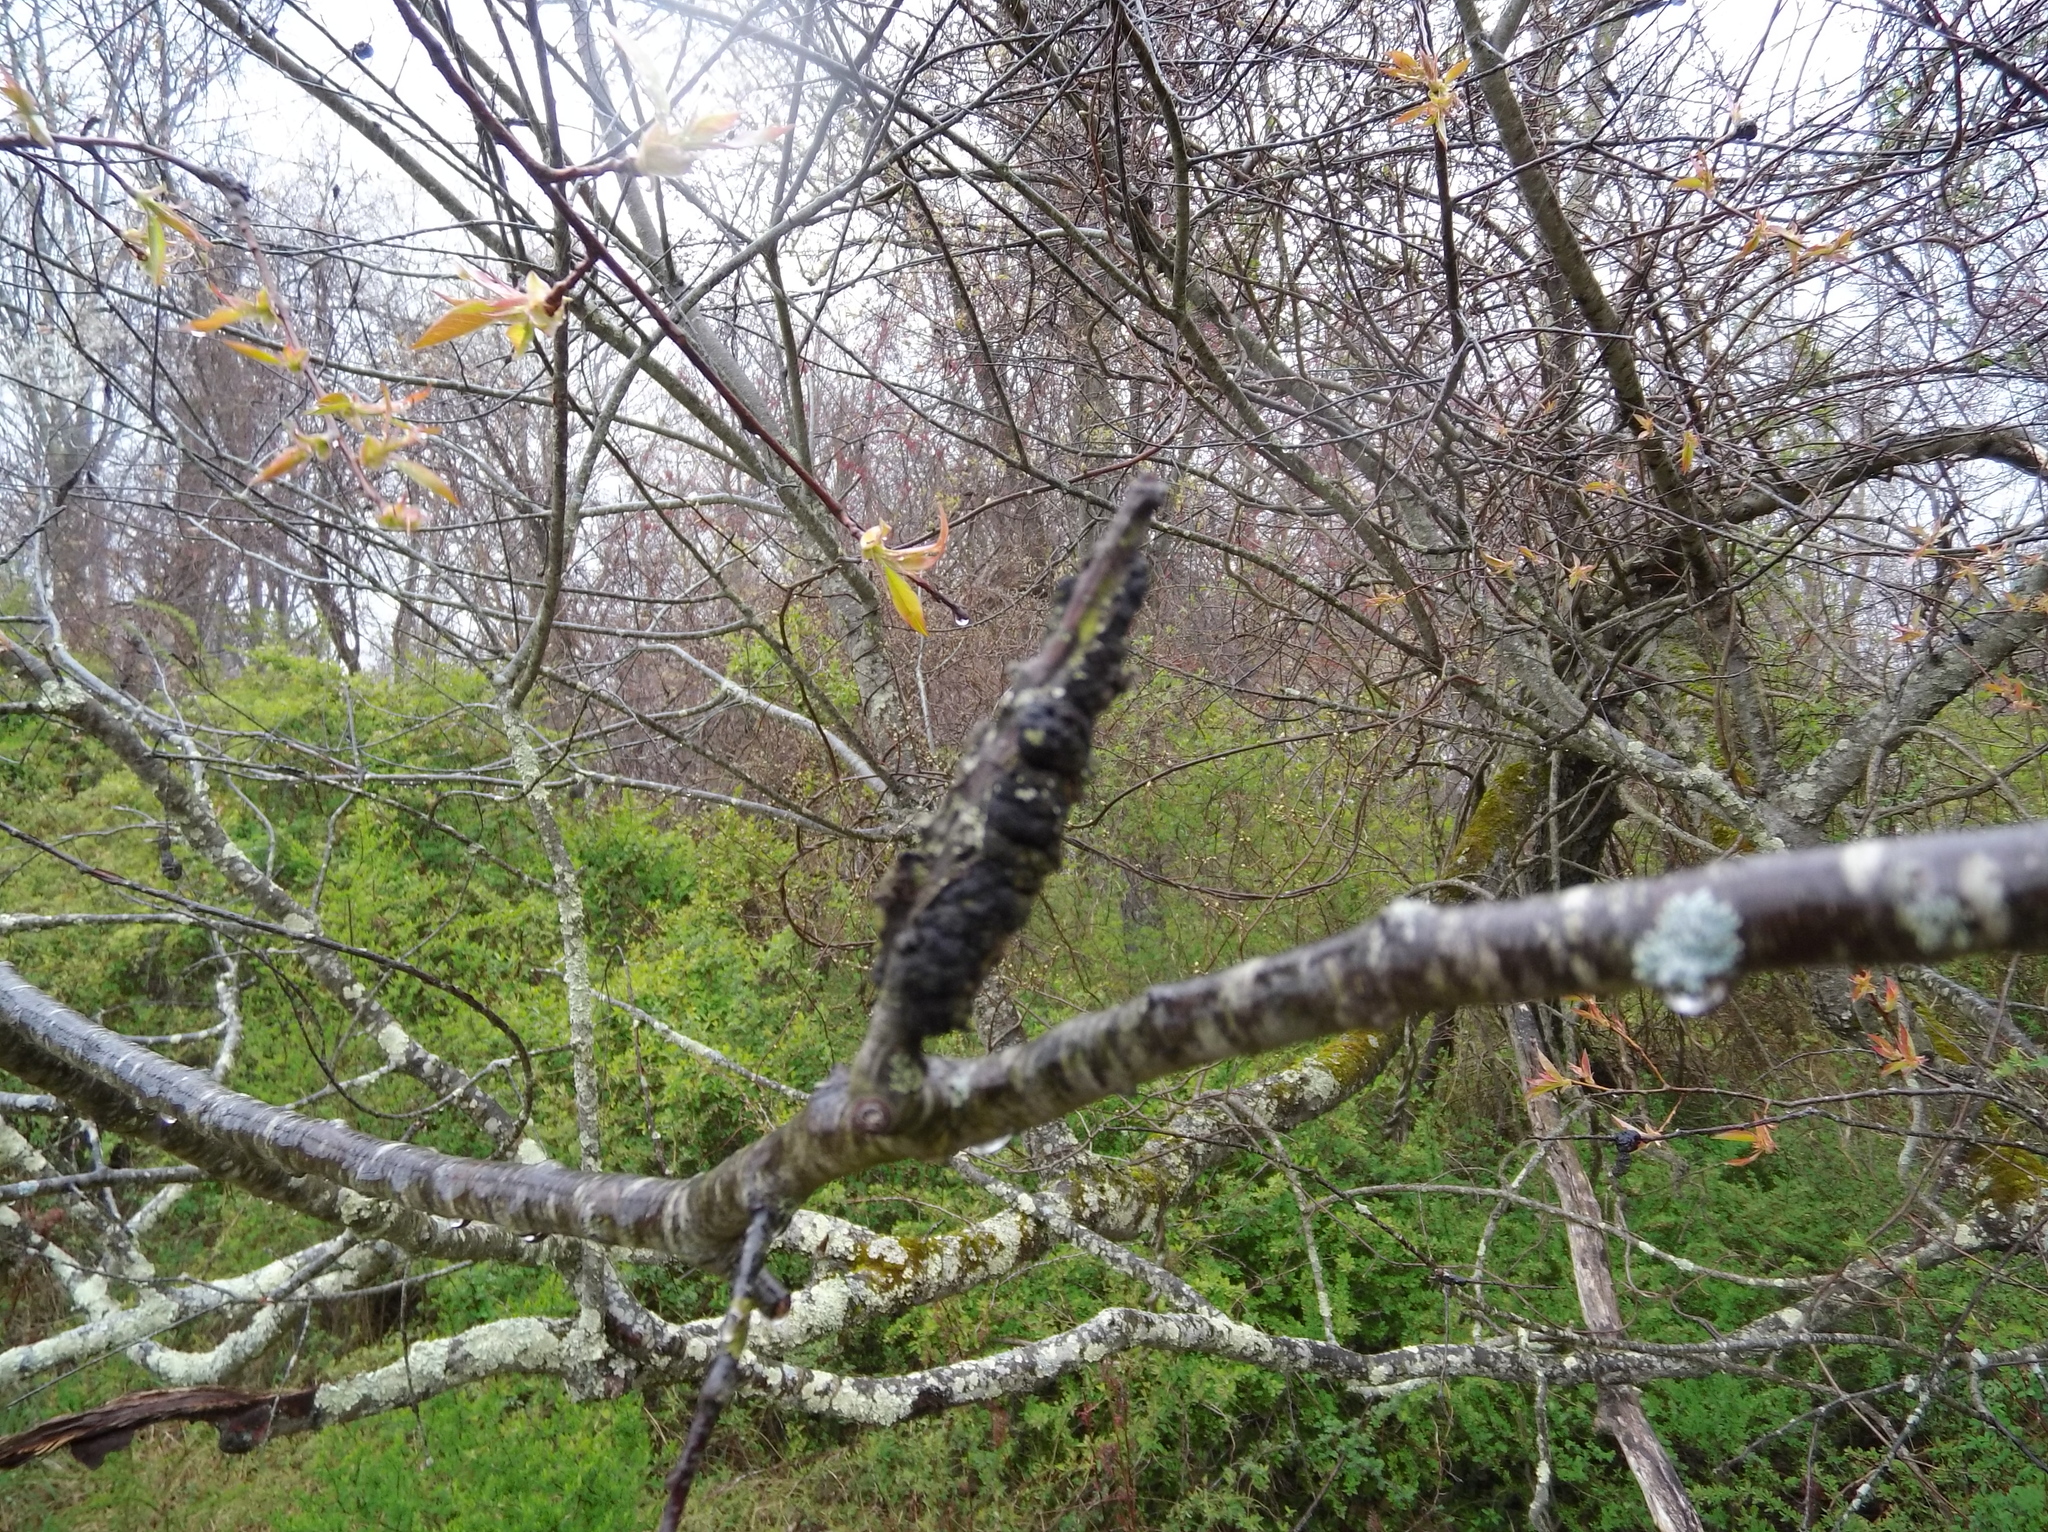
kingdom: Fungi
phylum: Ascomycota
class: Dothideomycetes
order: Venturiales
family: Venturiaceae
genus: Apiosporina
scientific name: Apiosporina morbosa
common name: Black knot
